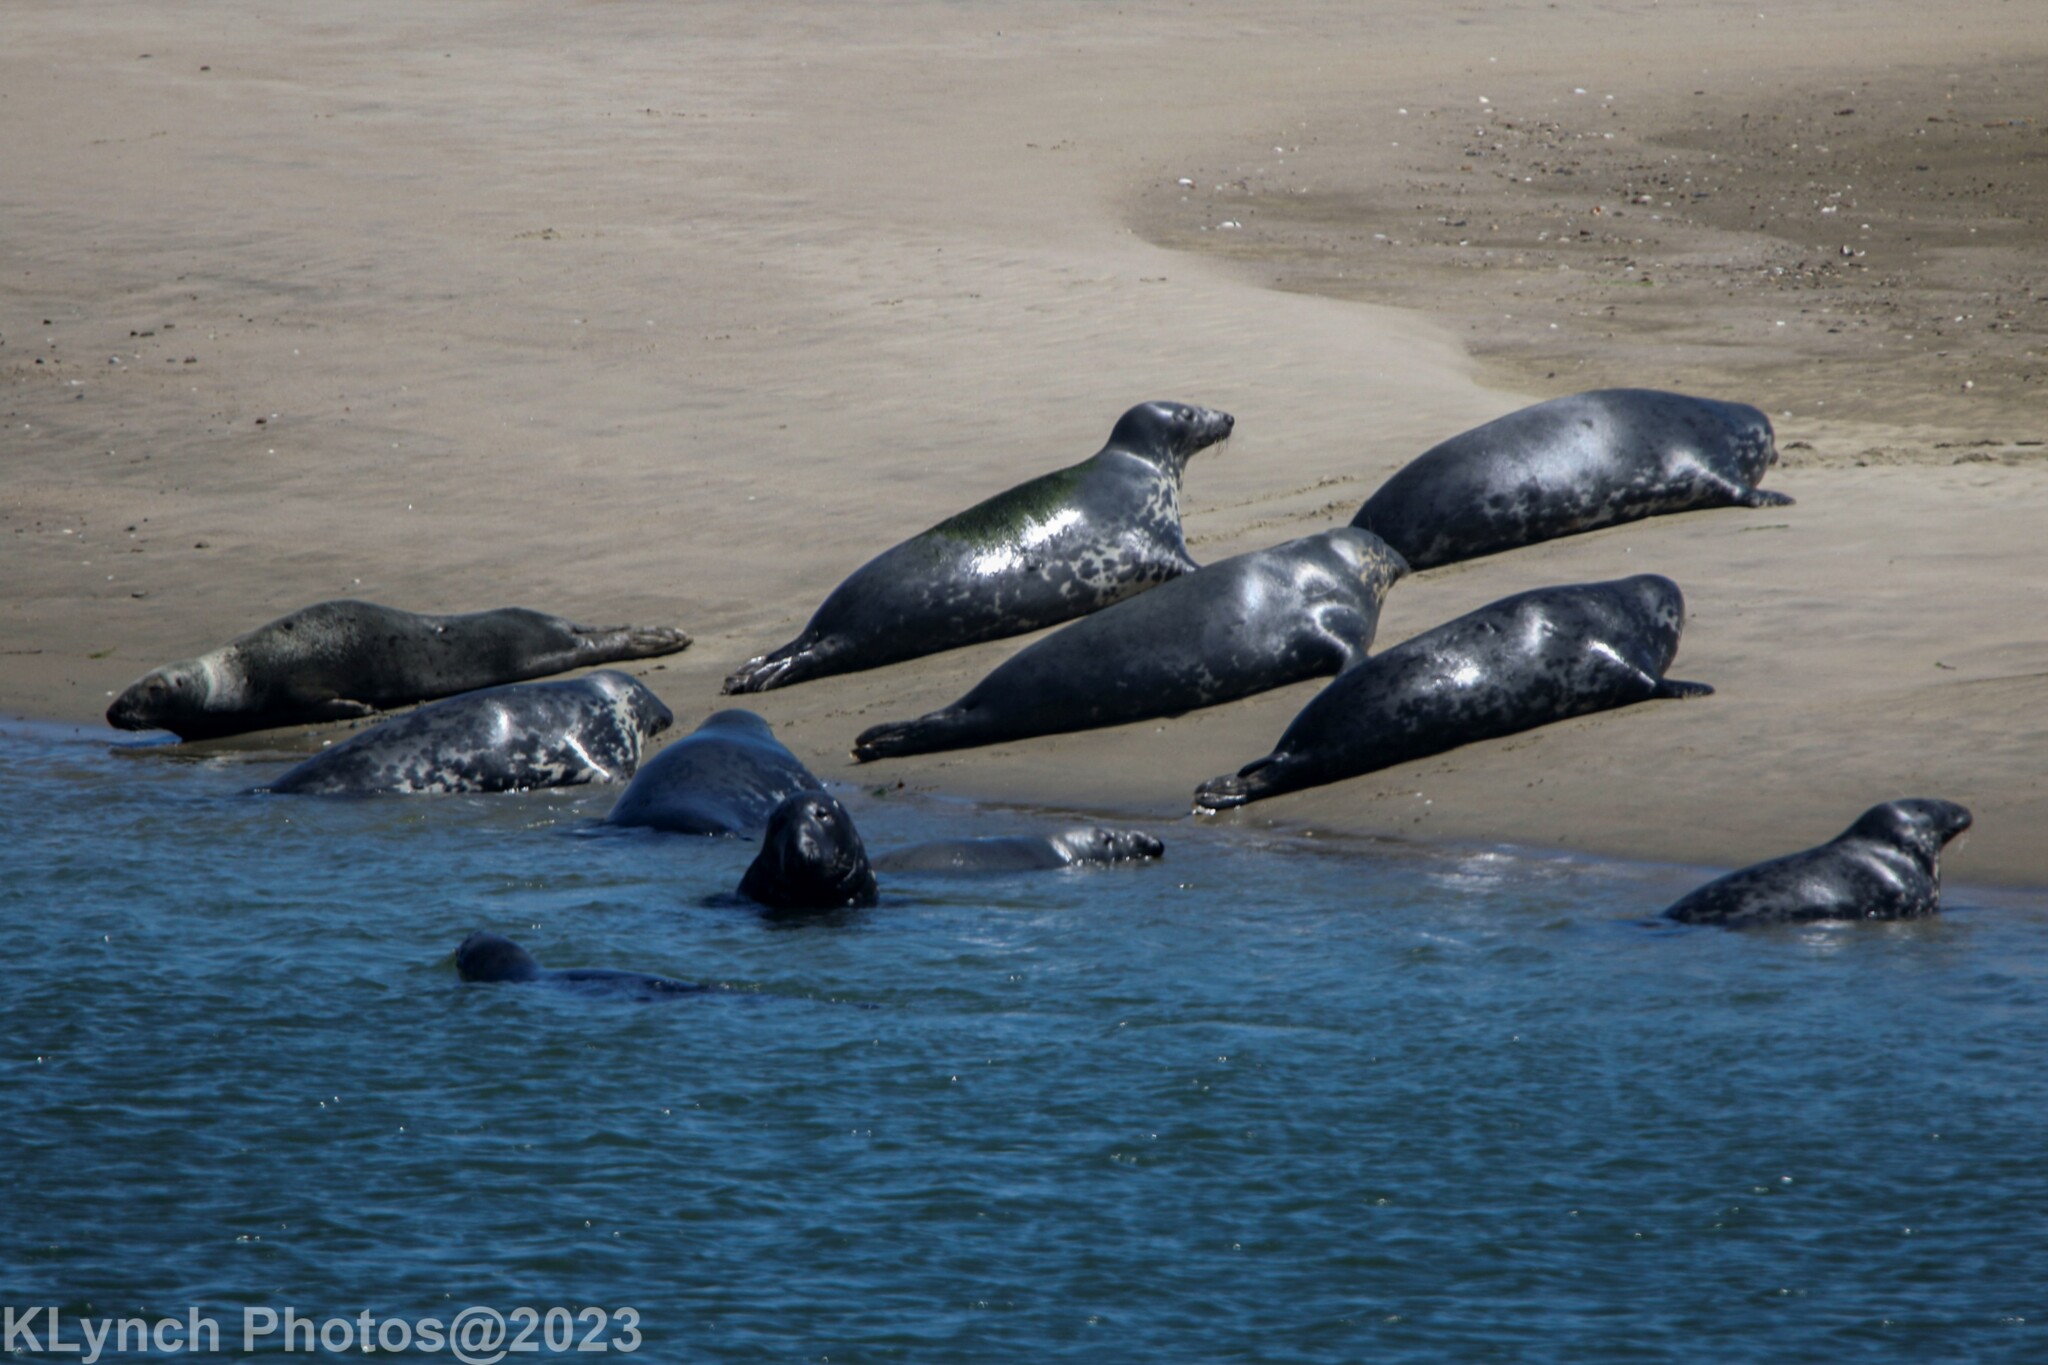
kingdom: Animalia
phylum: Chordata
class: Mammalia
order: Carnivora
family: Phocidae
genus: Halichoerus
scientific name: Halichoerus grypus
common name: Grey seal
